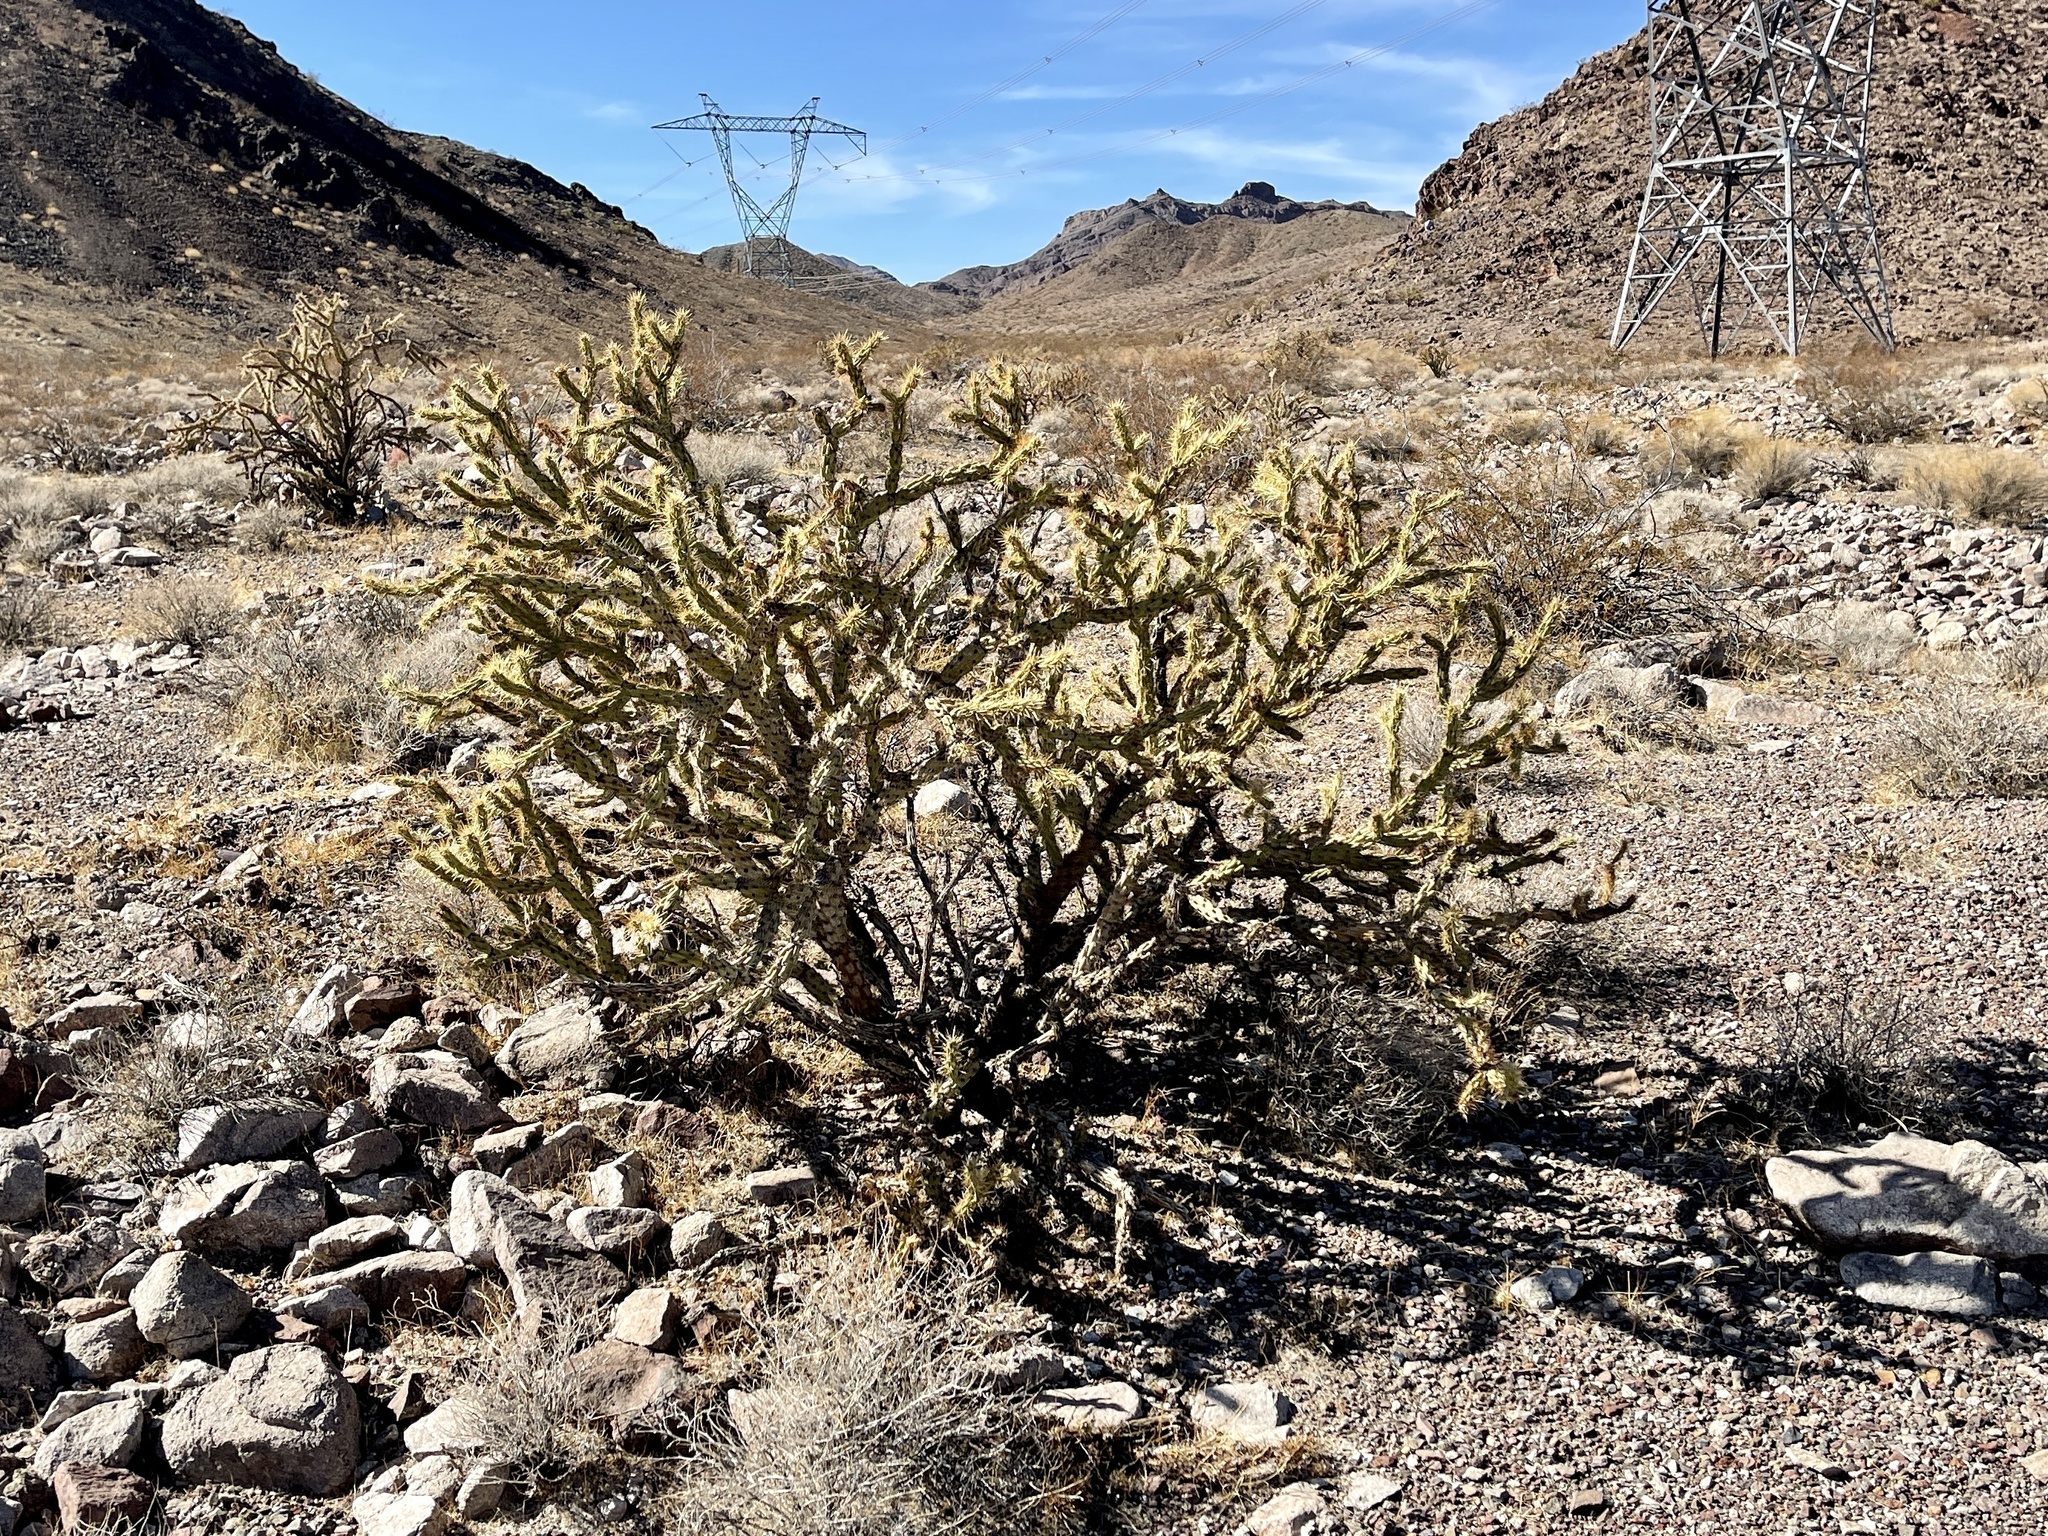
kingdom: Plantae
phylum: Tracheophyta
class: Magnoliopsida
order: Caryophyllales
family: Cactaceae
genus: Cylindropuntia
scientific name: Cylindropuntia acanthocarpa
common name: Buckhorn cholla
